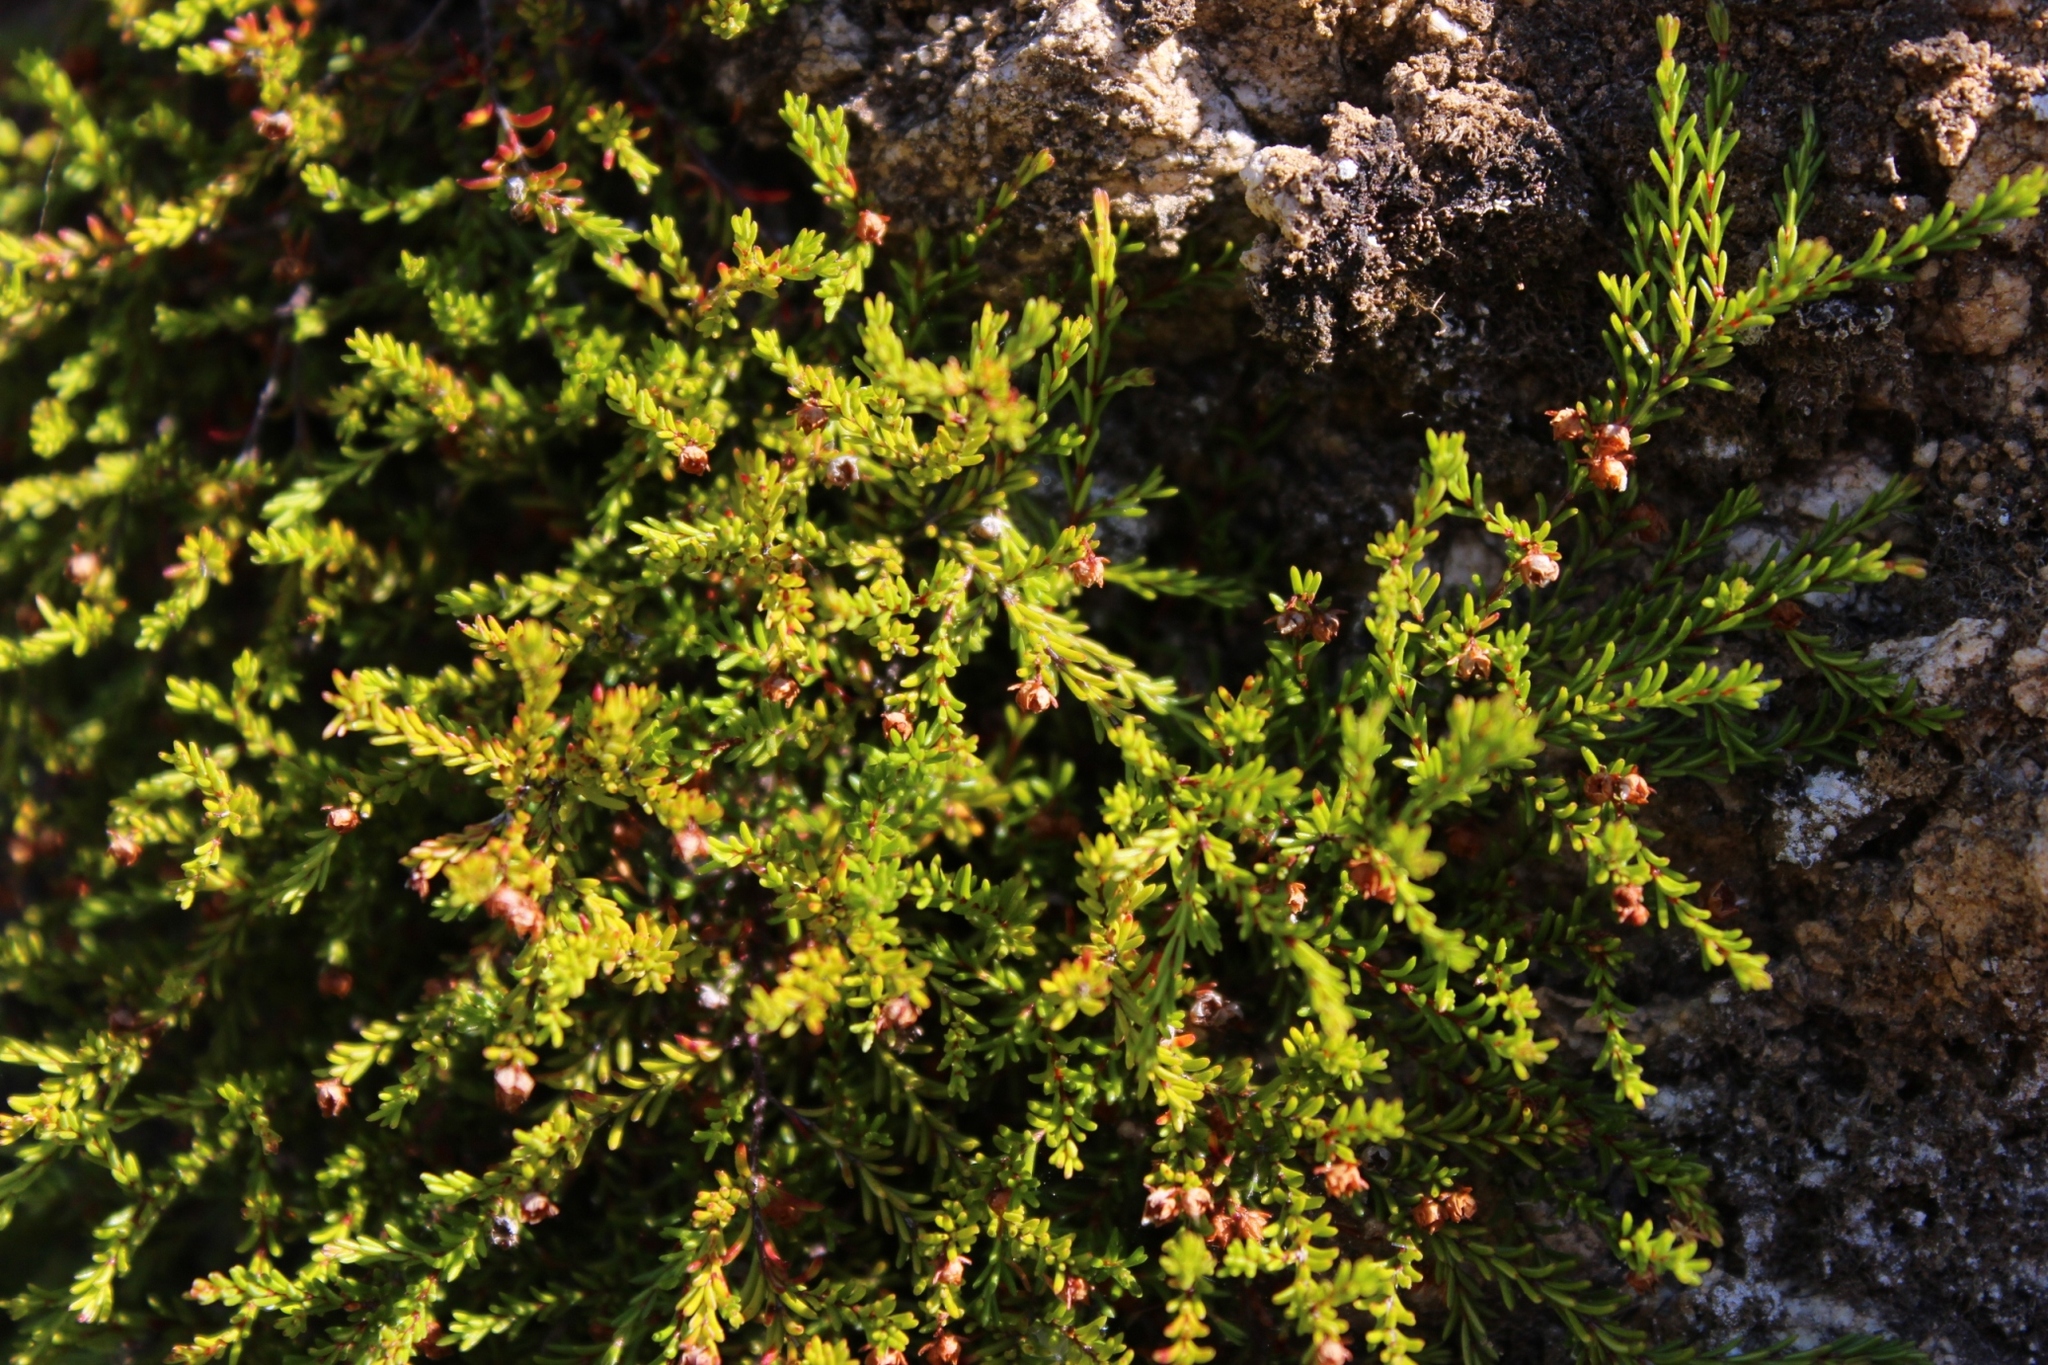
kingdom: Plantae
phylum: Tracheophyta
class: Magnoliopsida
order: Ericales
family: Ericaceae
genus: Erica
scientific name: Erica tenuis
